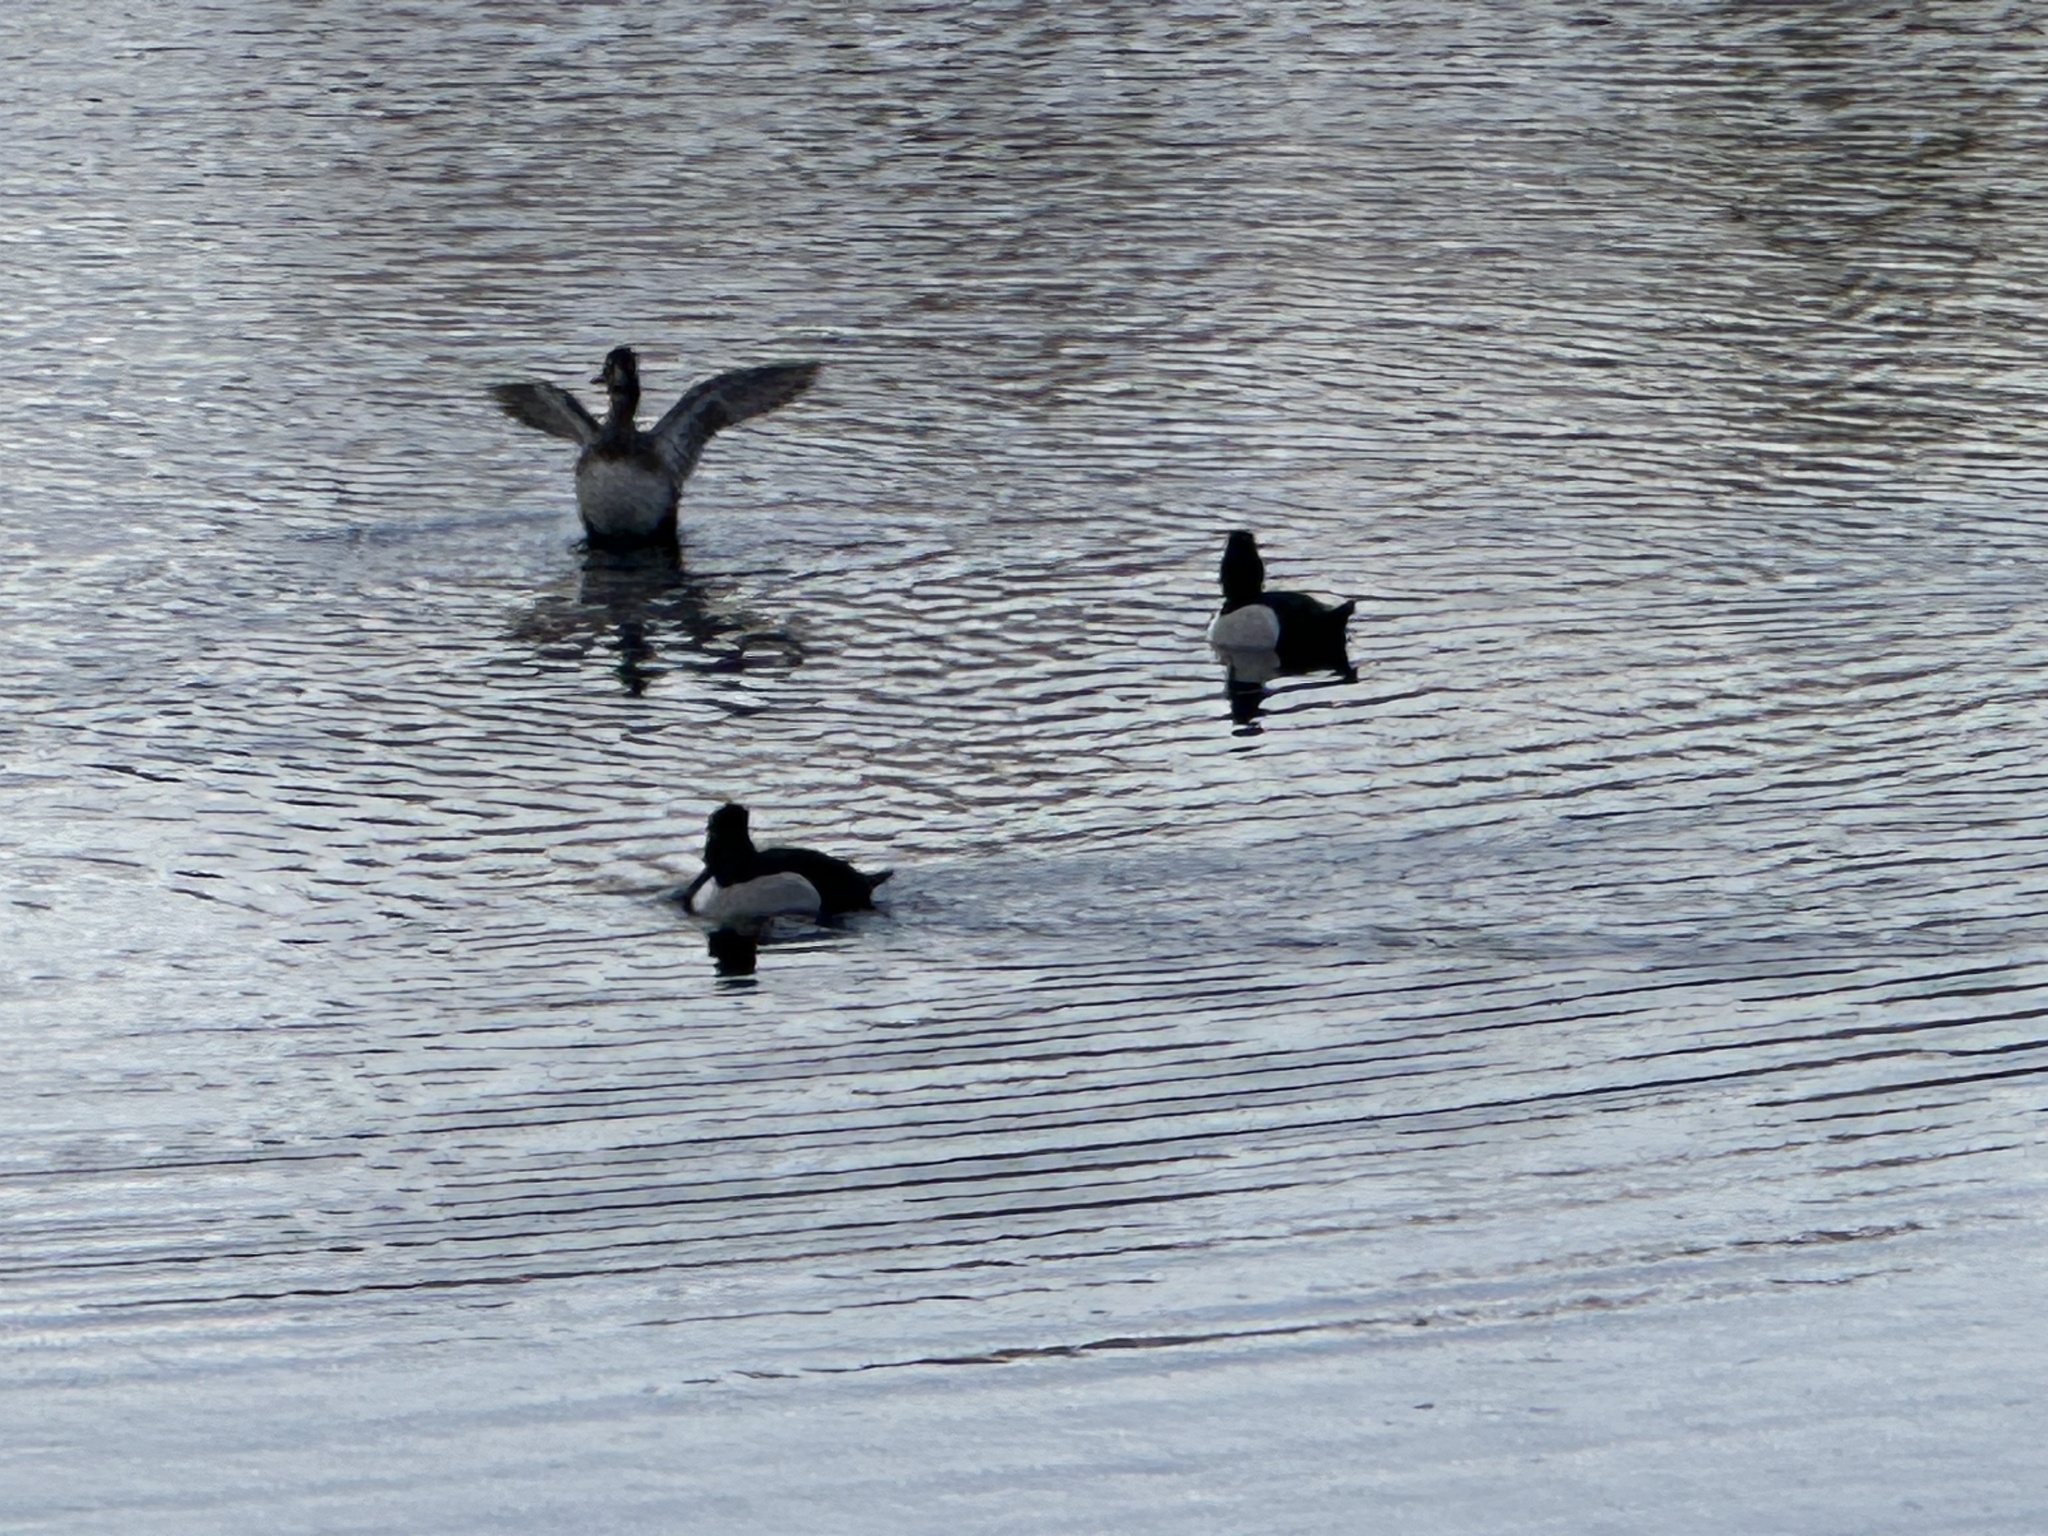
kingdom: Animalia
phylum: Chordata
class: Aves
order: Anseriformes
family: Anatidae
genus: Aythya
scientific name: Aythya collaris
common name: Ring-necked duck
